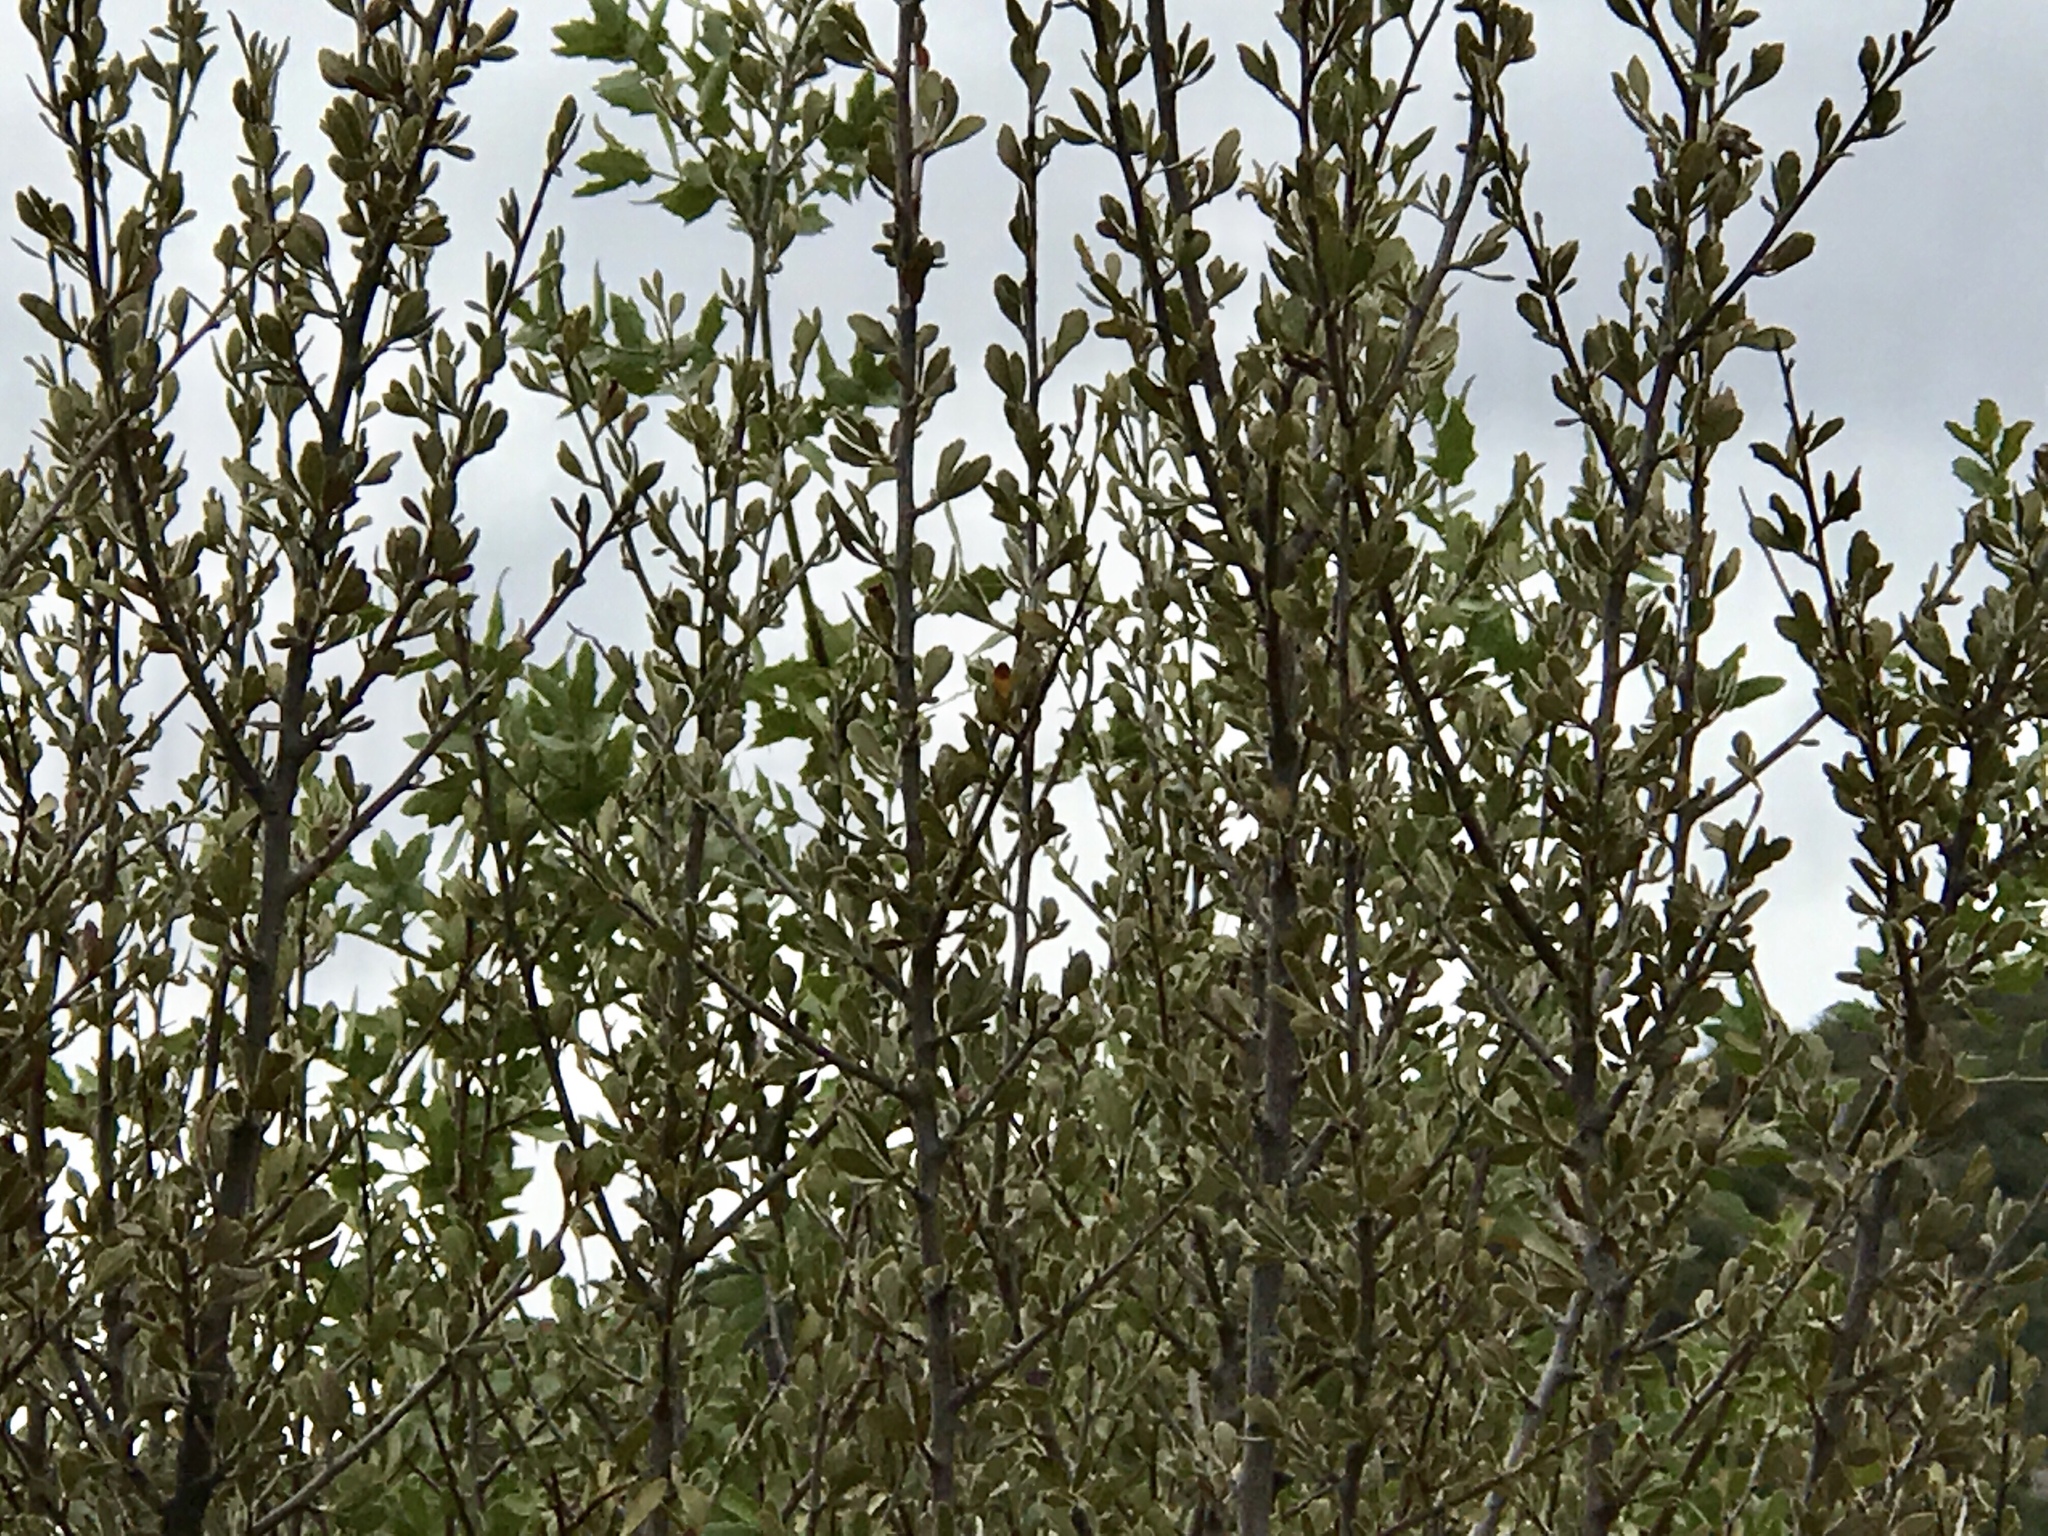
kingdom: Plantae
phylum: Tracheophyta
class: Magnoliopsida
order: Rosales
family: Rosaceae
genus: Cercocarpus
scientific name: Cercocarpus montanus
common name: Alder-leaf cercocarpus
